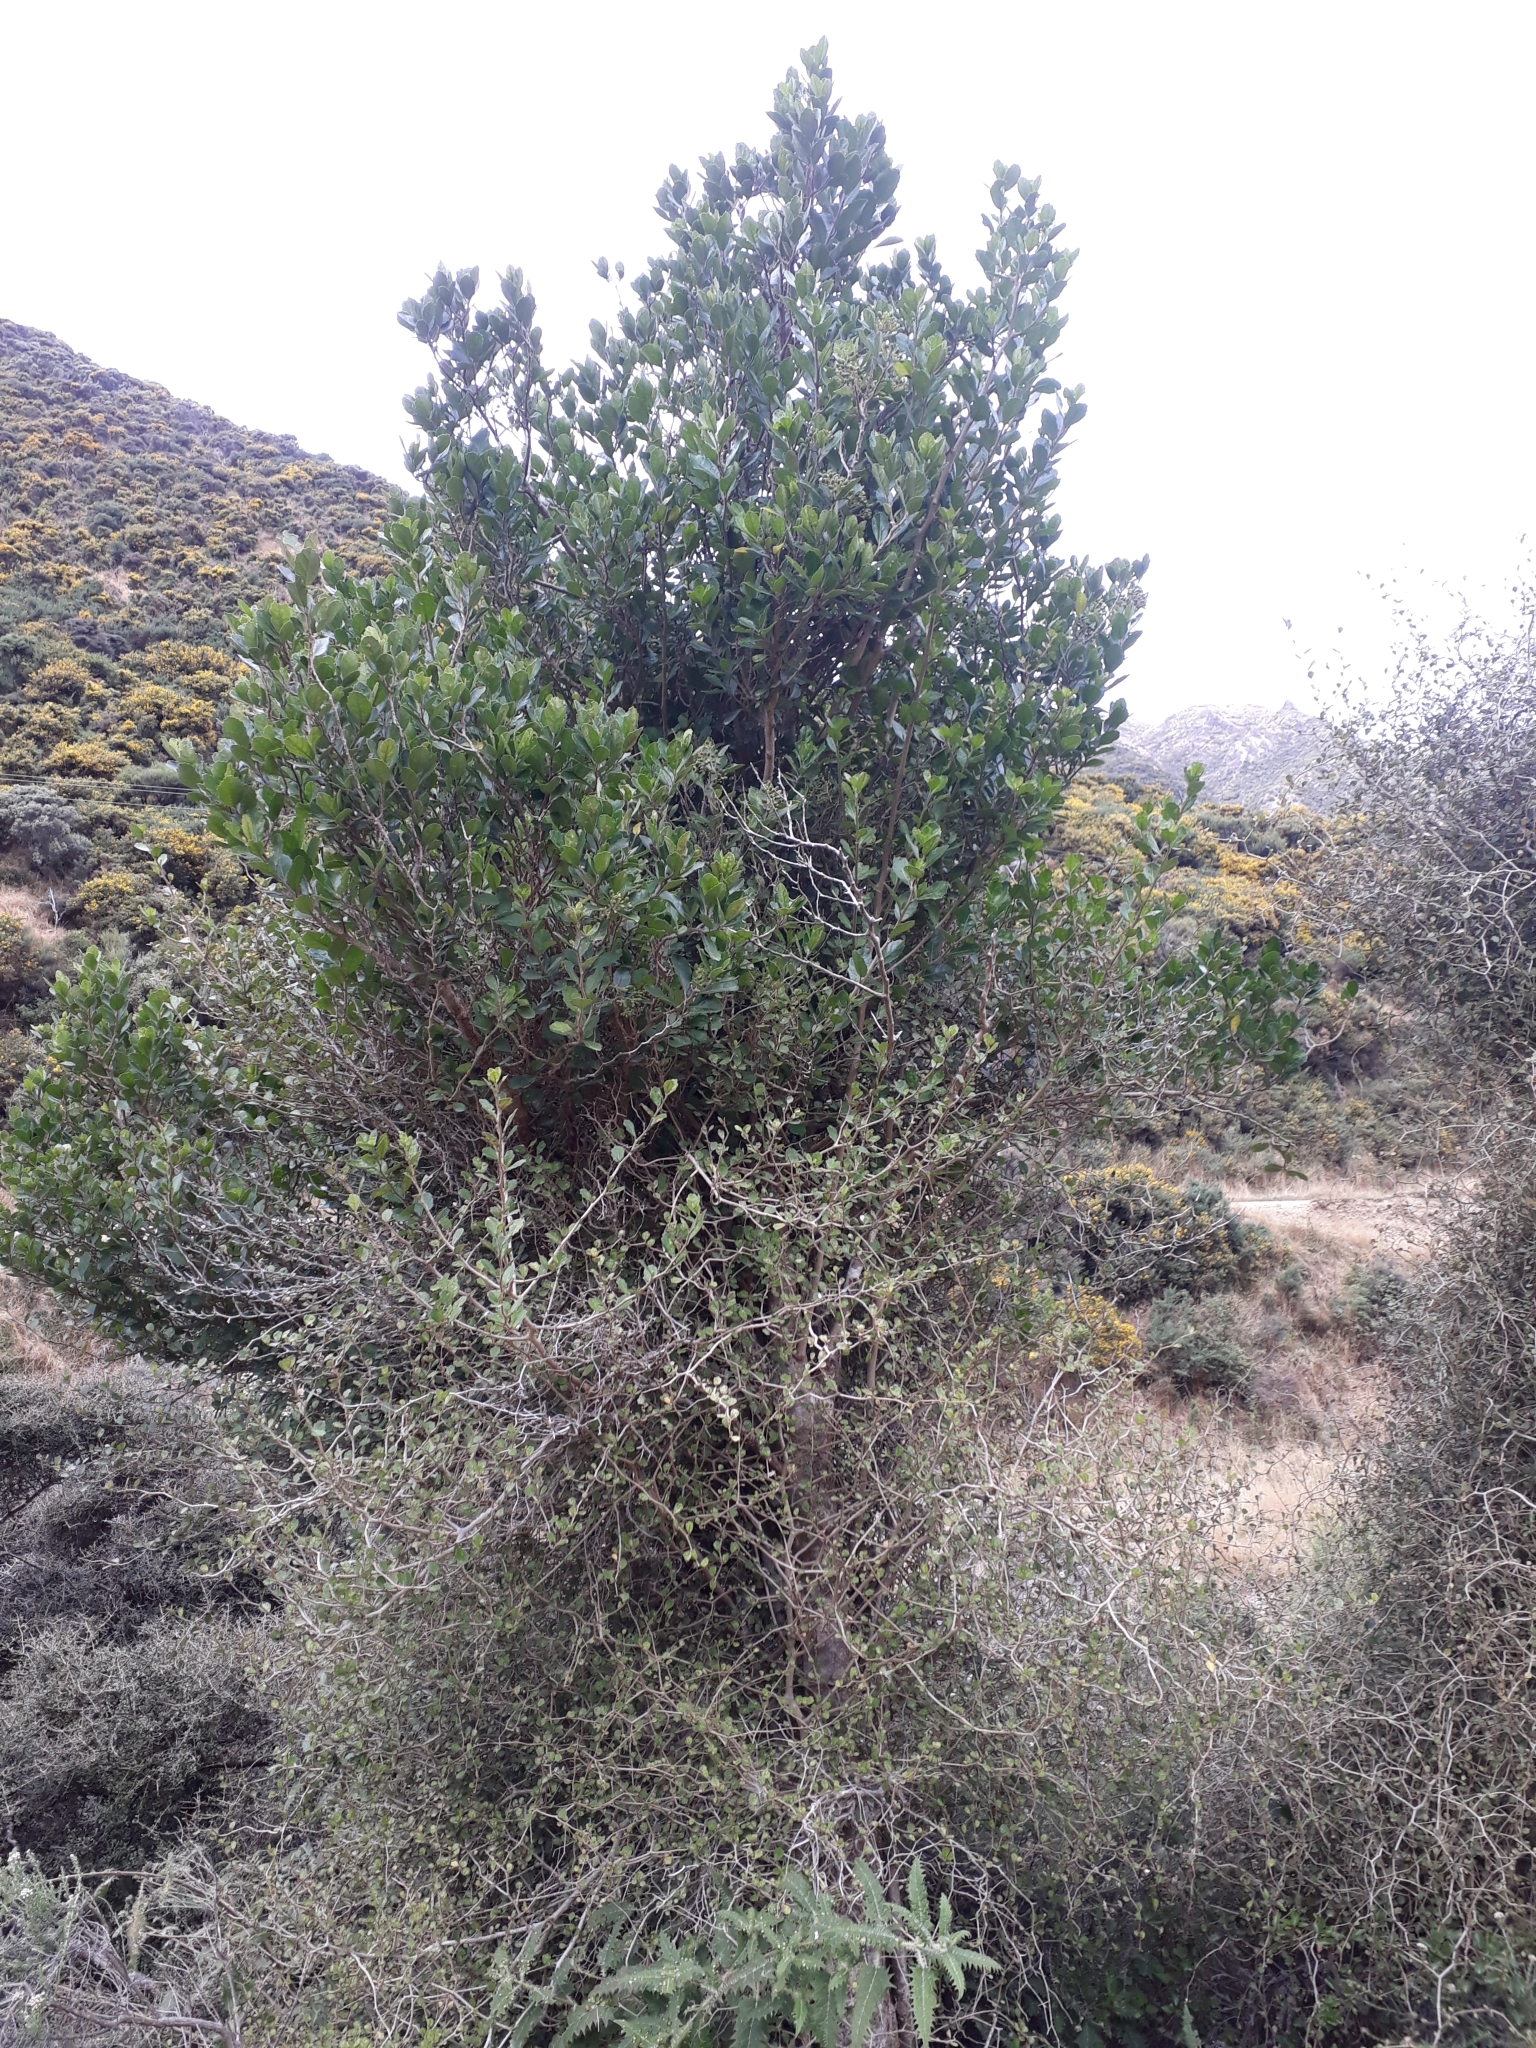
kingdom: Plantae
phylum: Tracheophyta
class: Magnoliopsida
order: Apiales
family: Pennantiaceae
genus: Pennantia
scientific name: Pennantia corymbosa
